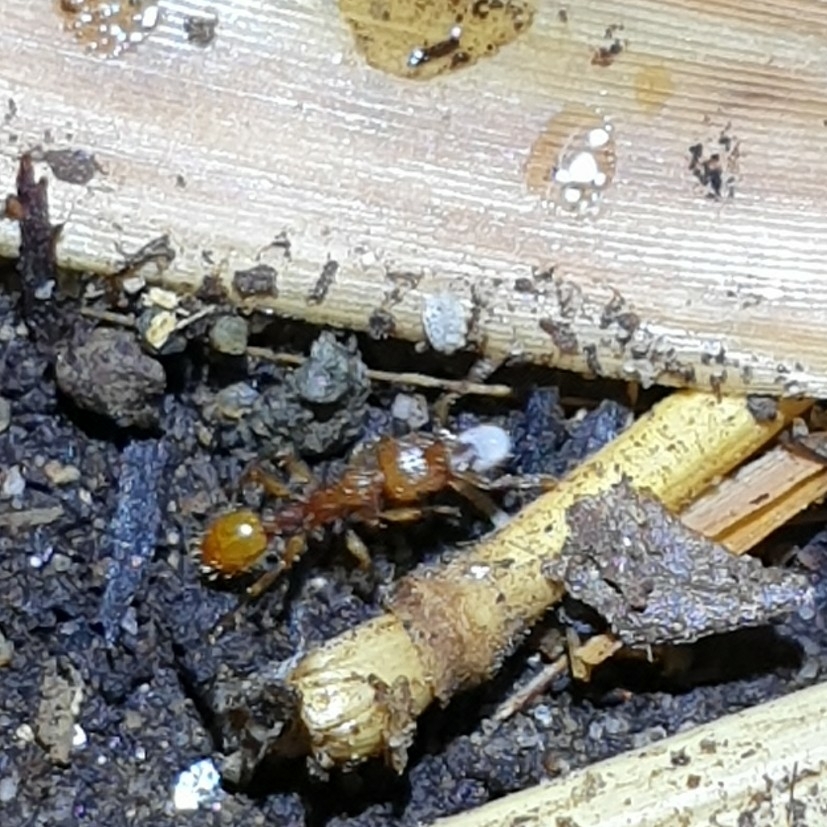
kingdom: Animalia
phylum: Arthropoda
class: Insecta
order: Hymenoptera
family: Formicidae
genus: Tetramorium
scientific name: Tetramorium insolens
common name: Ant
